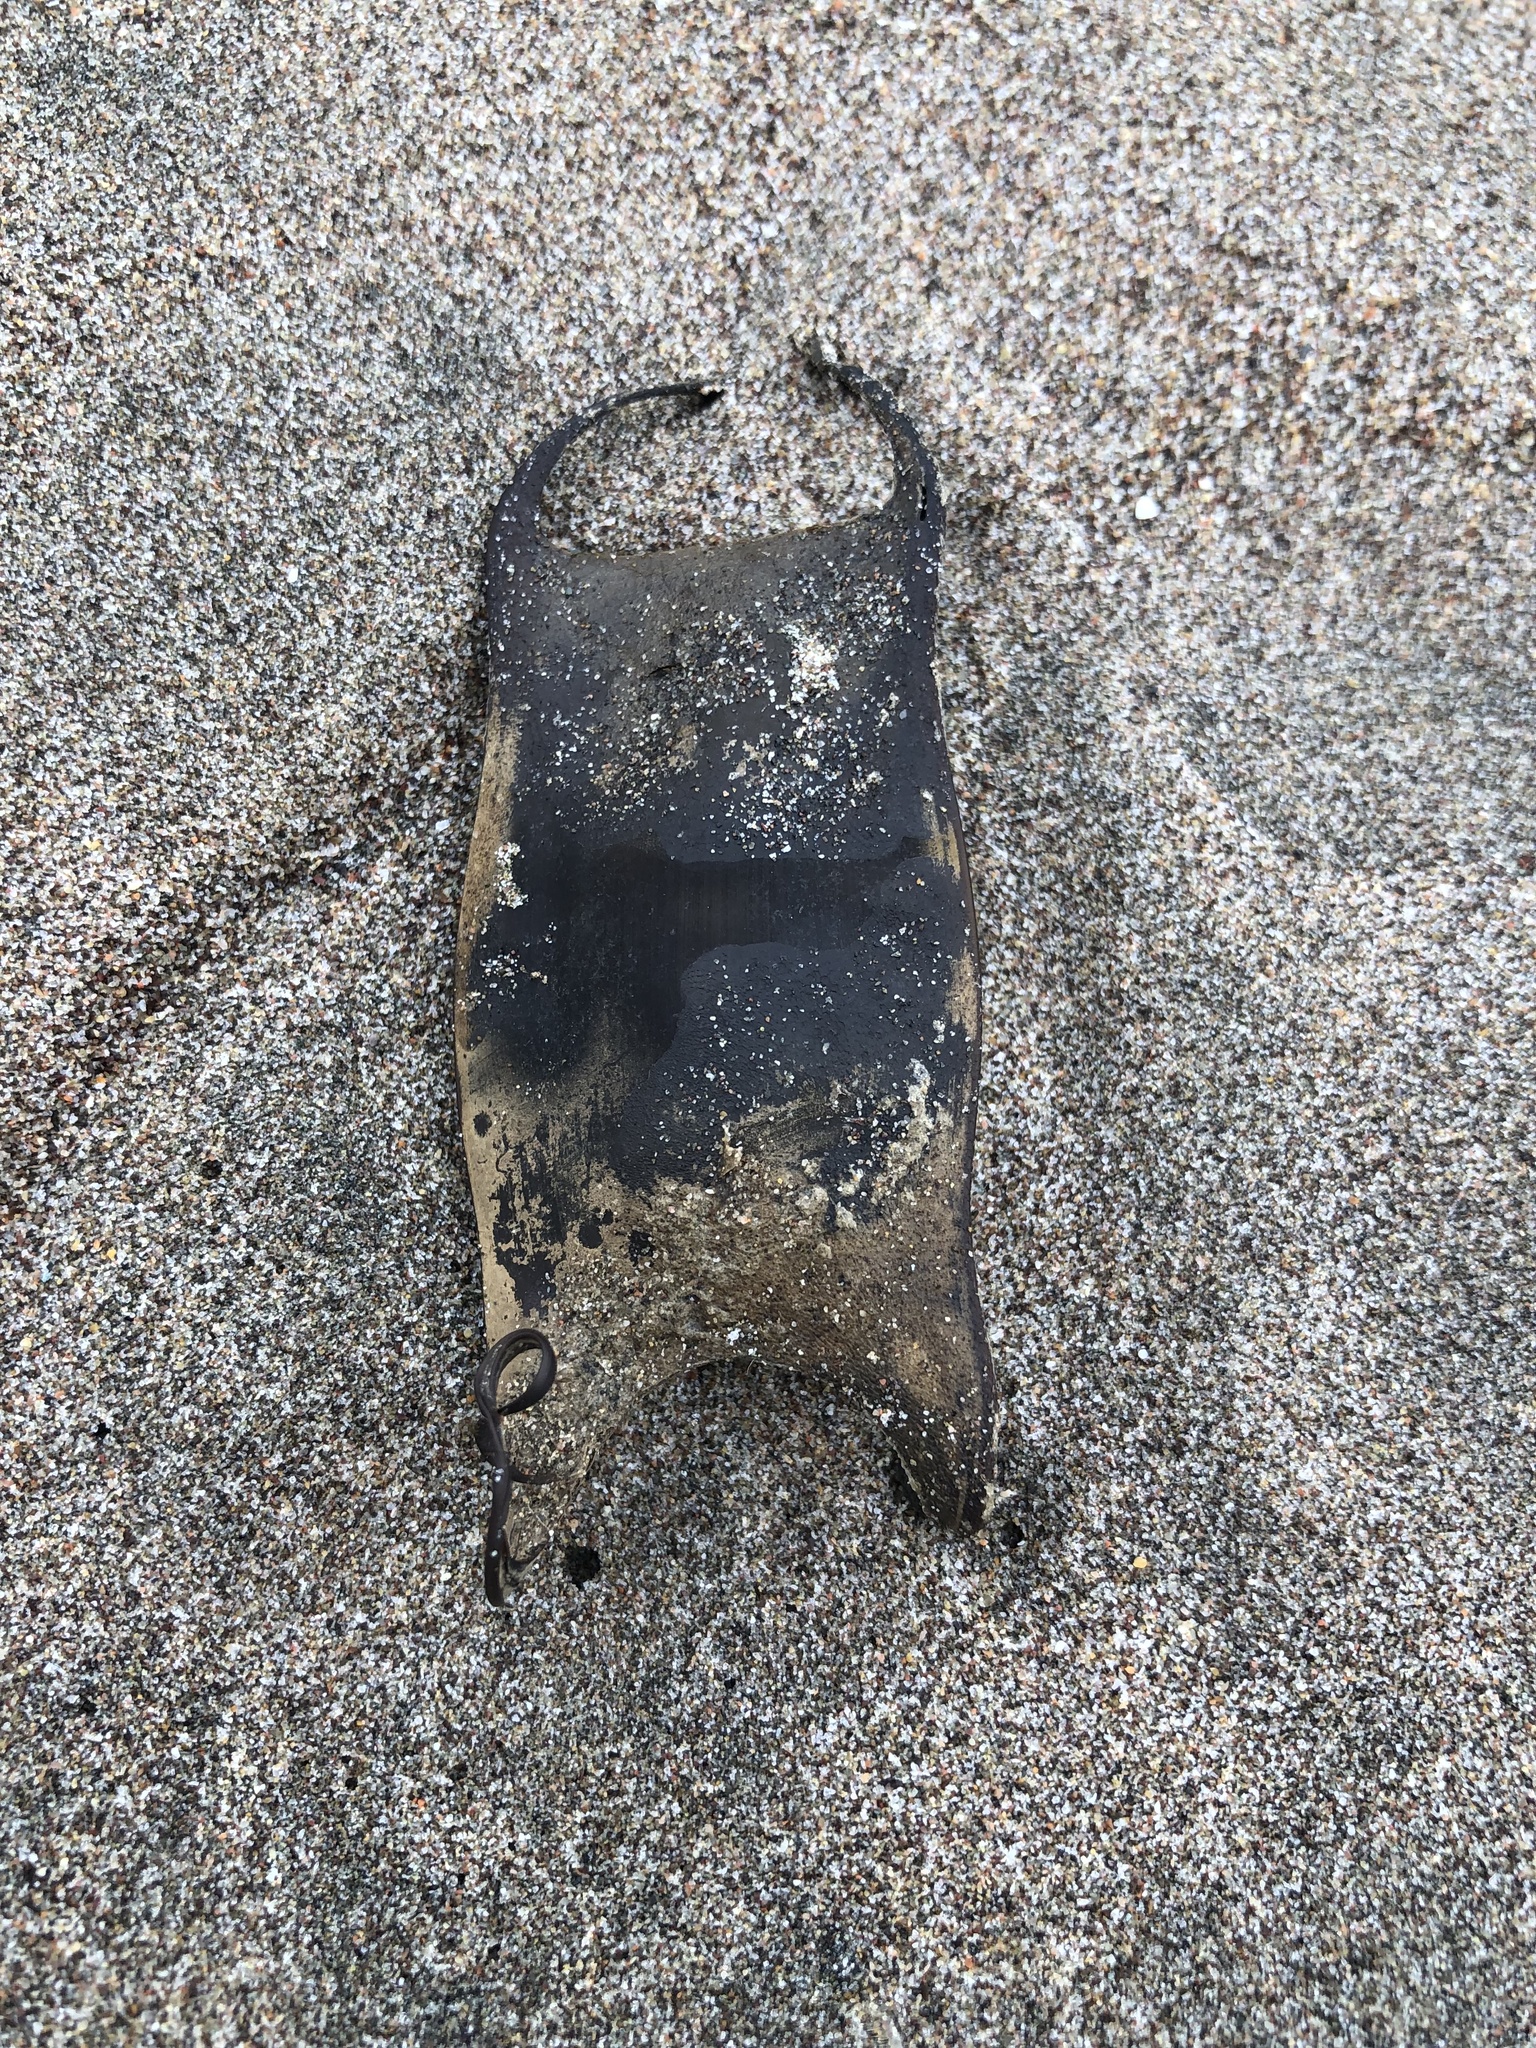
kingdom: Animalia
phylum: Chordata
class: Elasmobranchii
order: Rajiformes
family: Arhynchobatidae
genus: Sympterygia
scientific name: Sympterygia brevicaudata
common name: Shorttail fanskate
